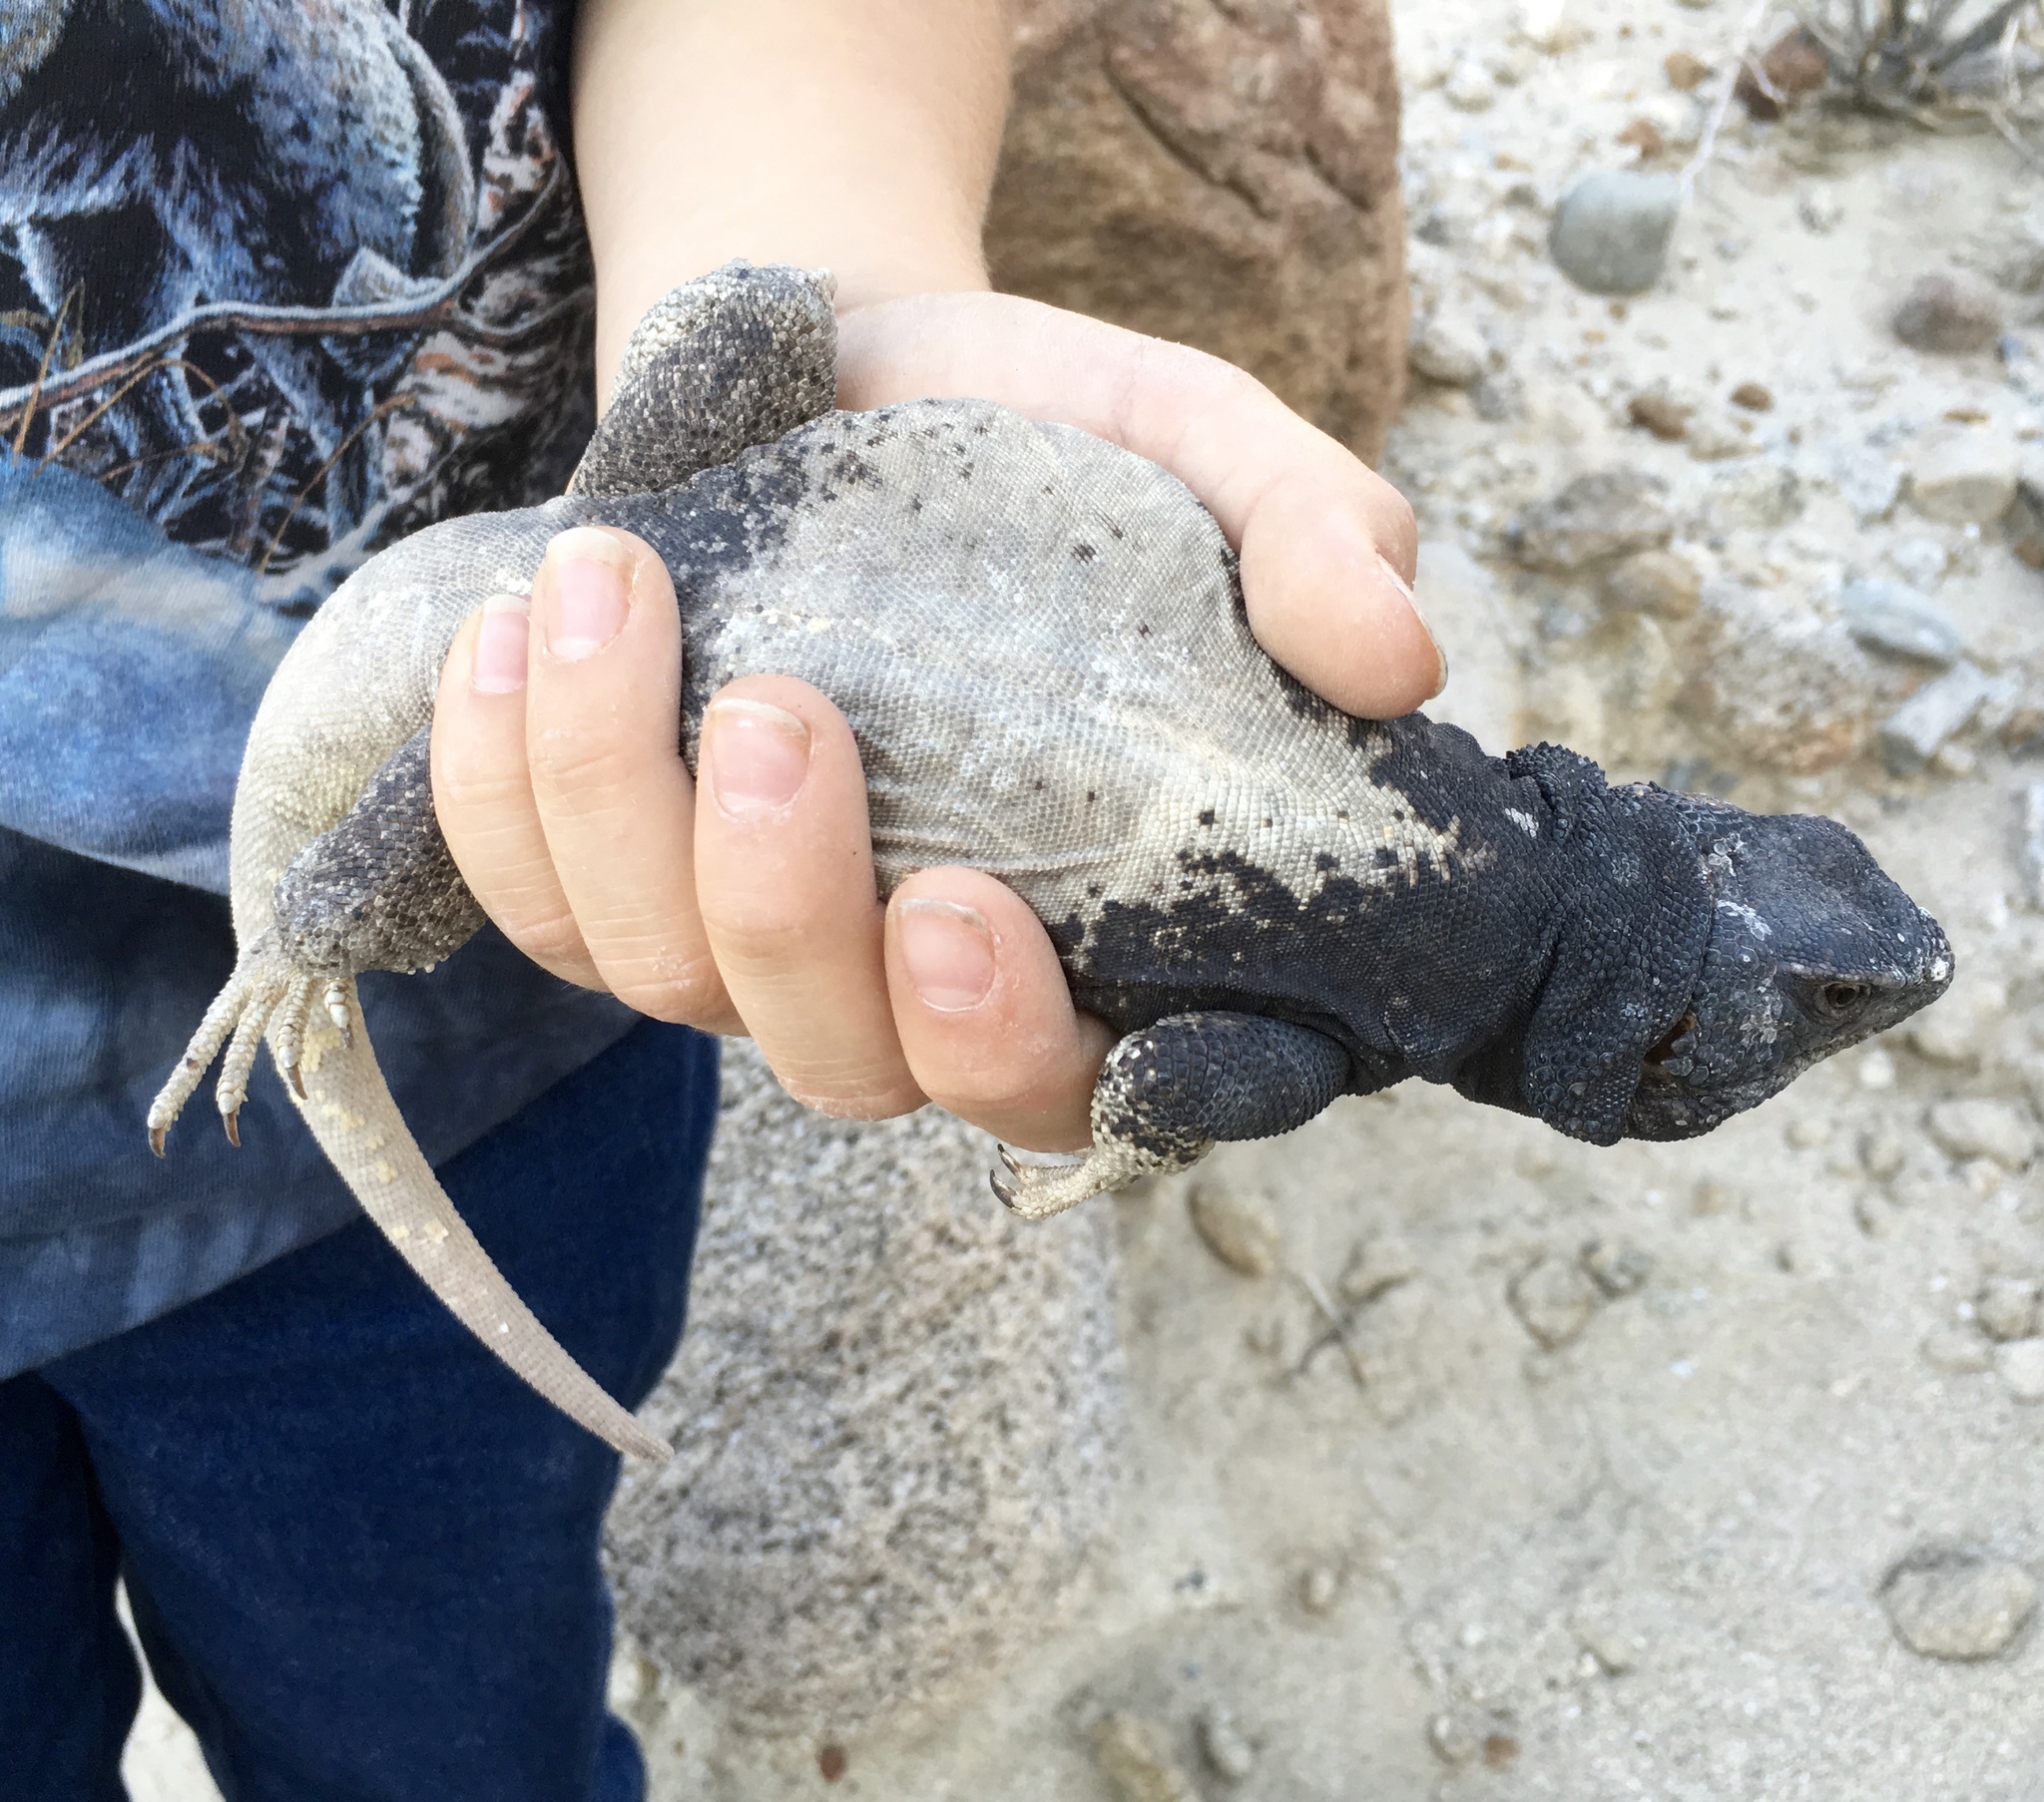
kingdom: Animalia
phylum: Chordata
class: Squamata
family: Iguanidae
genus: Sauromalus
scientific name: Sauromalus ater
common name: Northern chuckwalla
